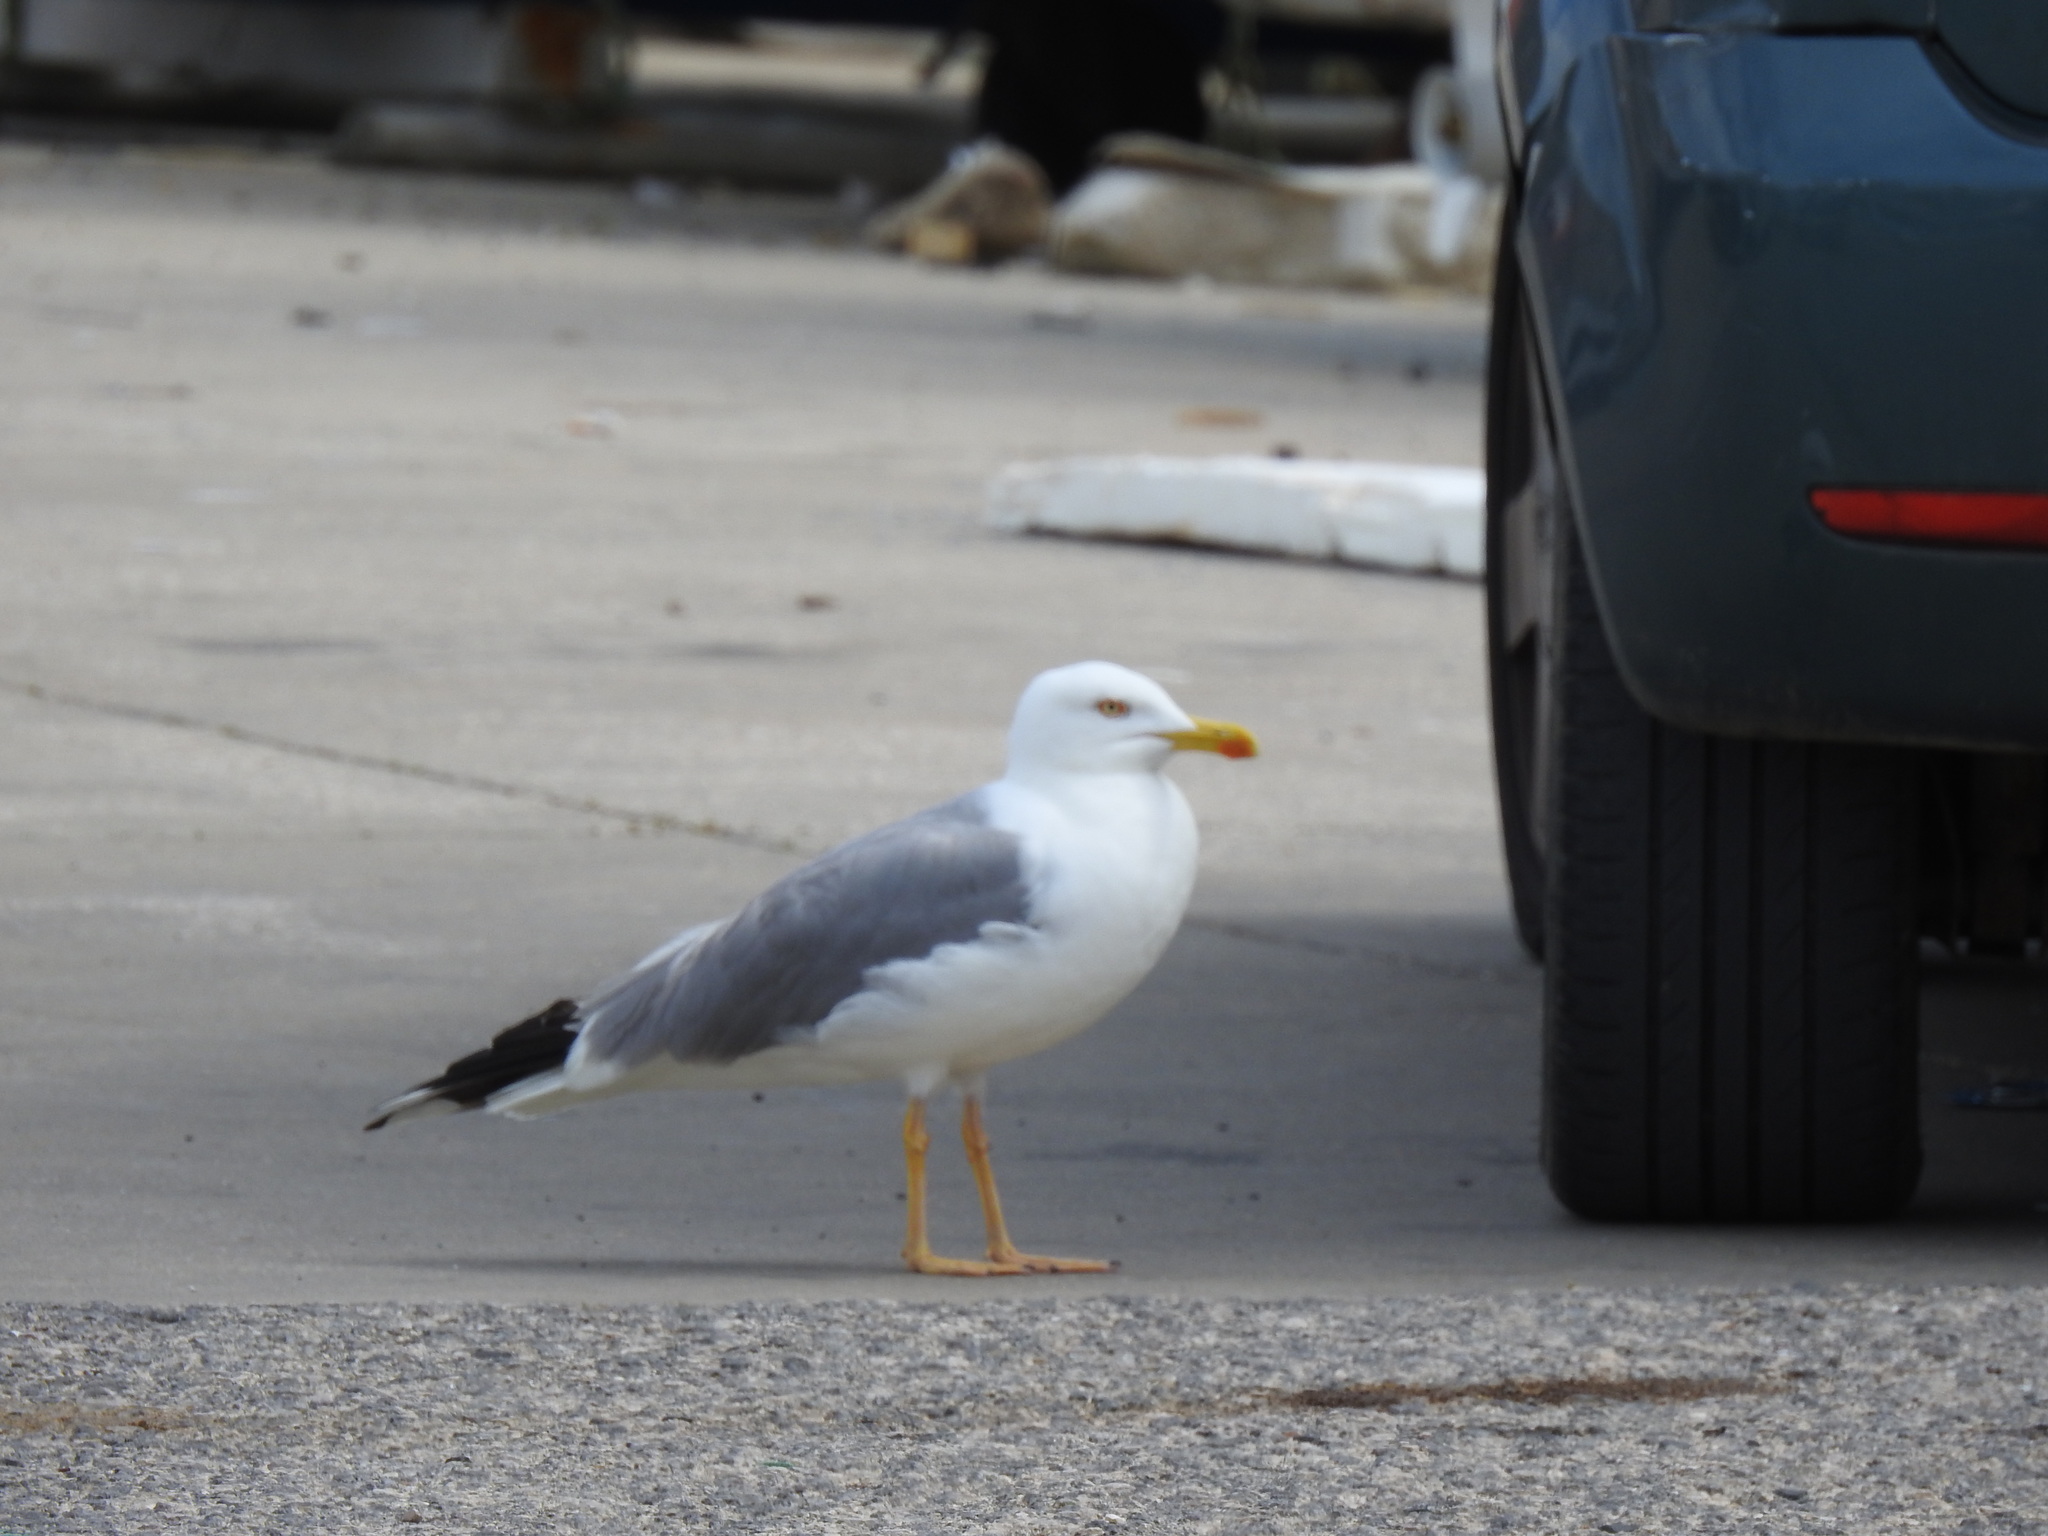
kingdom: Animalia
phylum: Chordata
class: Aves
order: Charadriiformes
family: Laridae
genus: Larus
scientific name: Larus michahellis
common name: Yellow-legged gull
